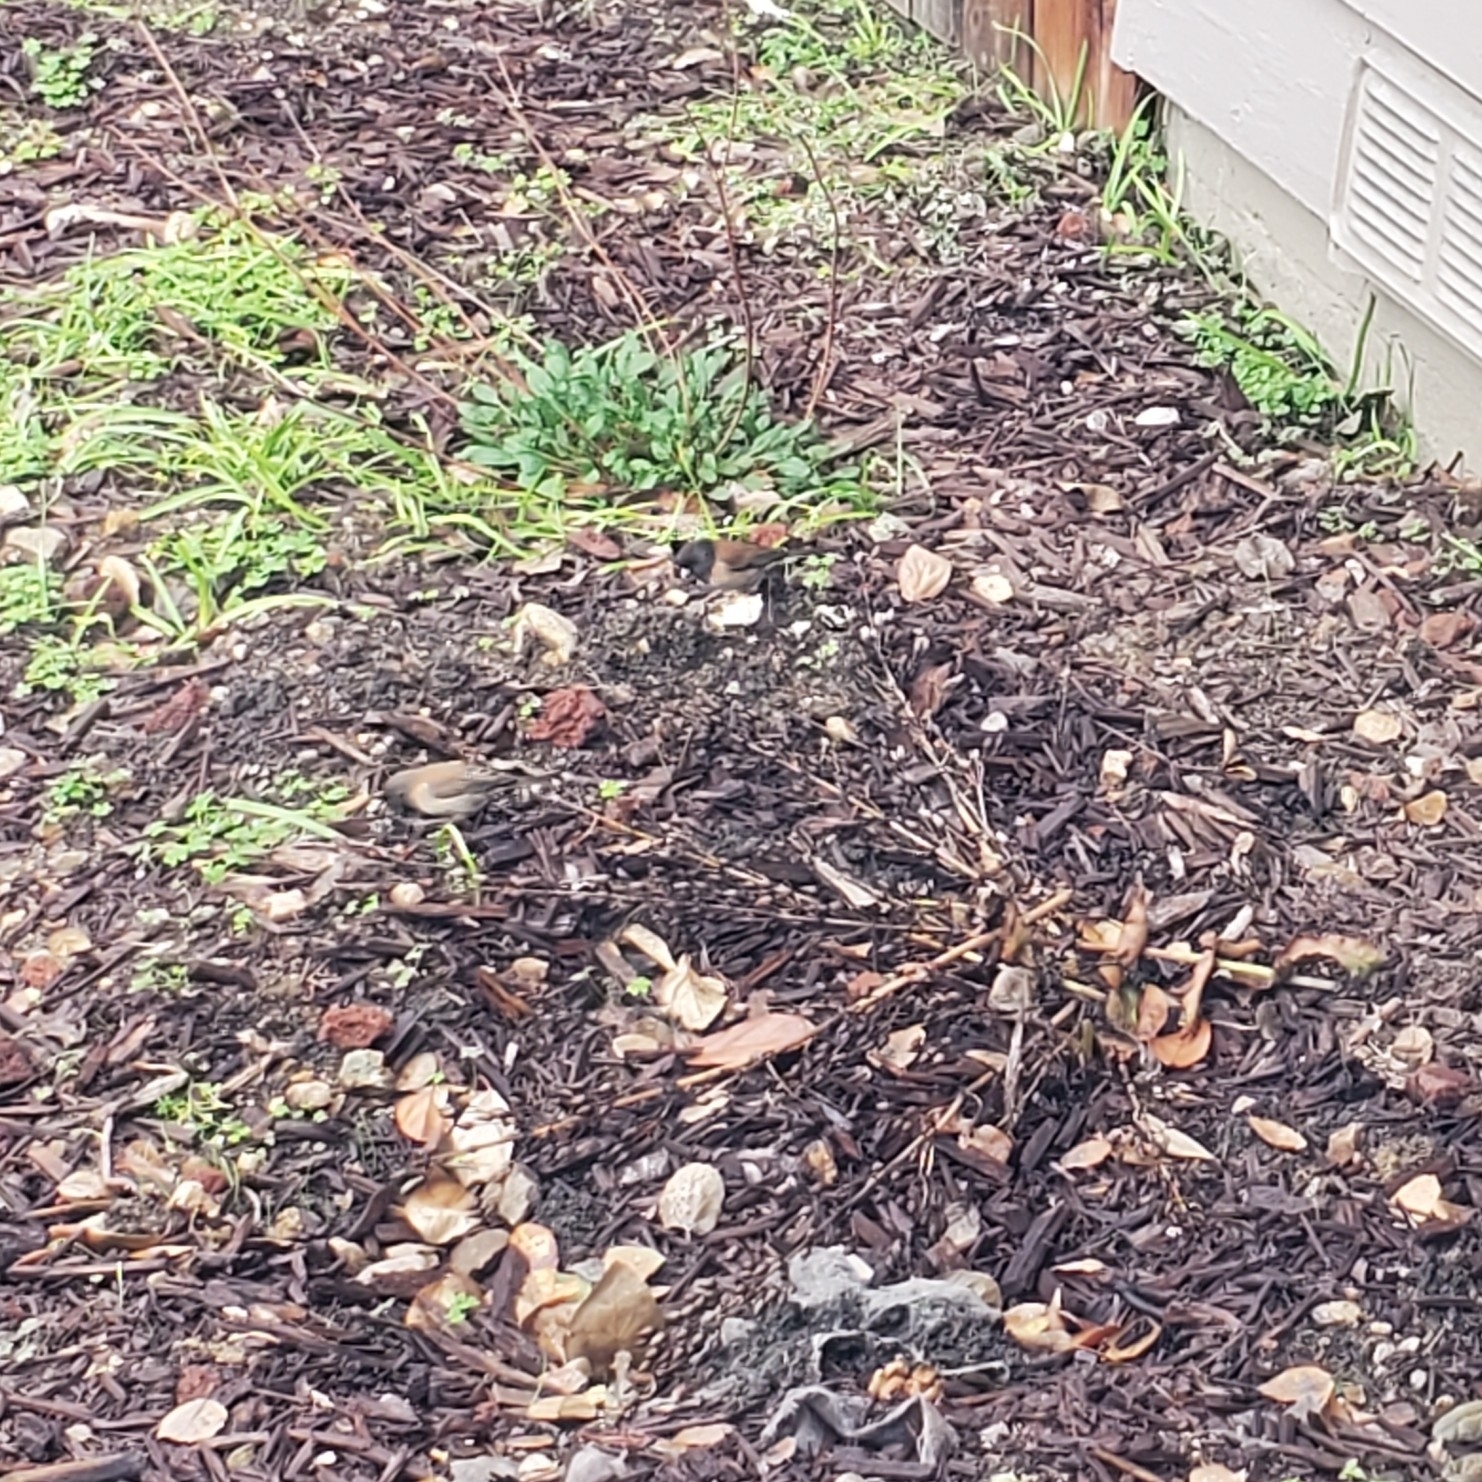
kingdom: Animalia
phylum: Chordata
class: Aves
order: Passeriformes
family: Passerellidae
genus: Junco
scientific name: Junco hyemalis
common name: Dark-eyed junco
